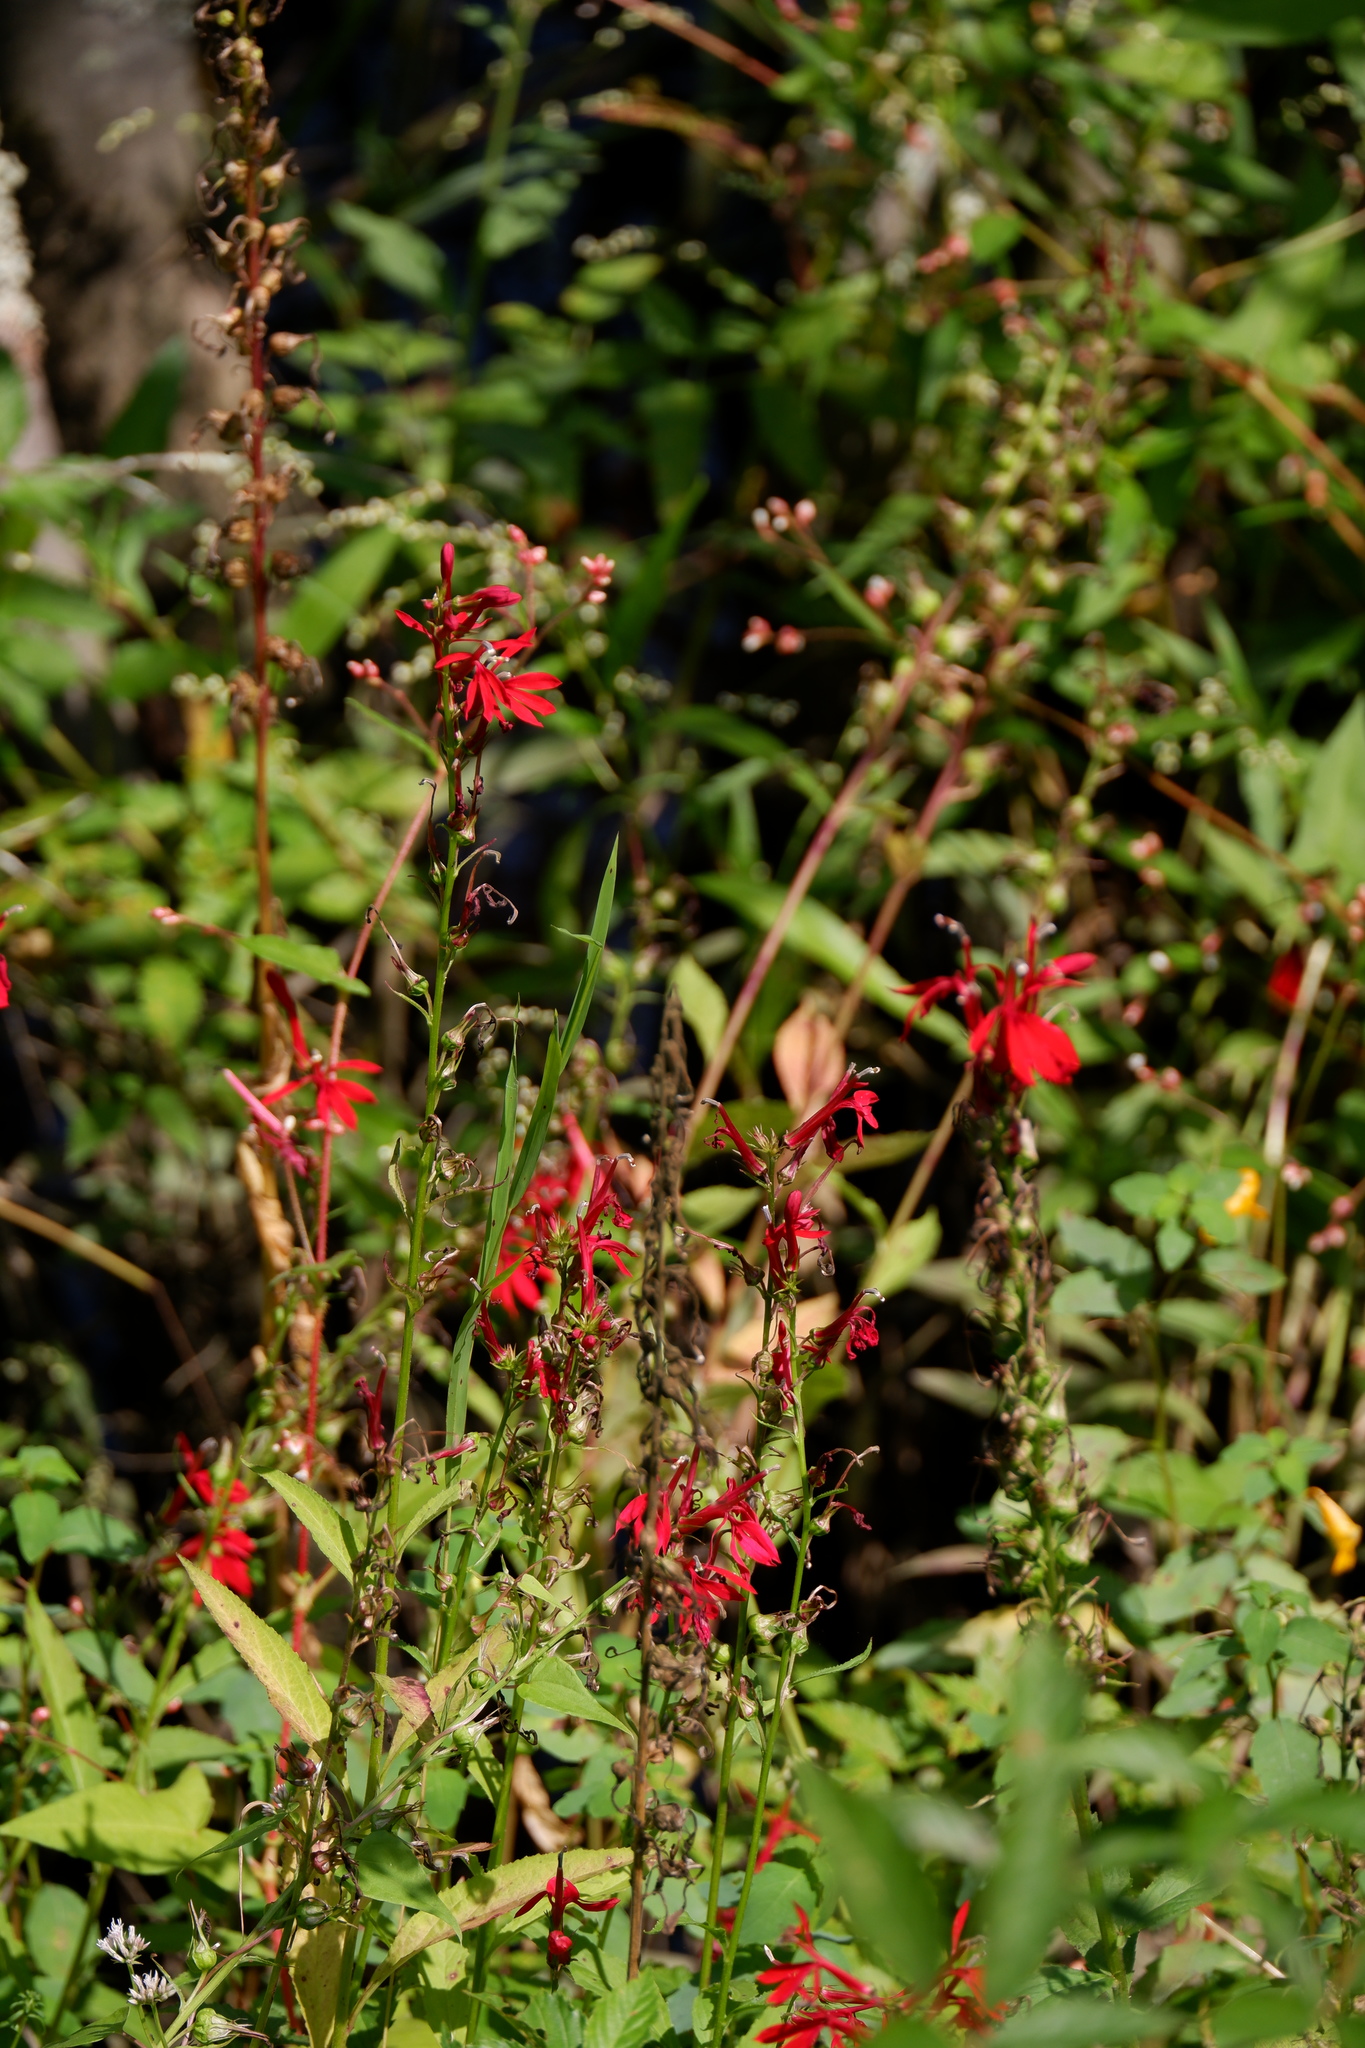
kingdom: Plantae
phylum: Tracheophyta
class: Magnoliopsida
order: Asterales
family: Campanulaceae
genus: Lobelia
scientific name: Lobelia cardinalis
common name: Cardinal flower
